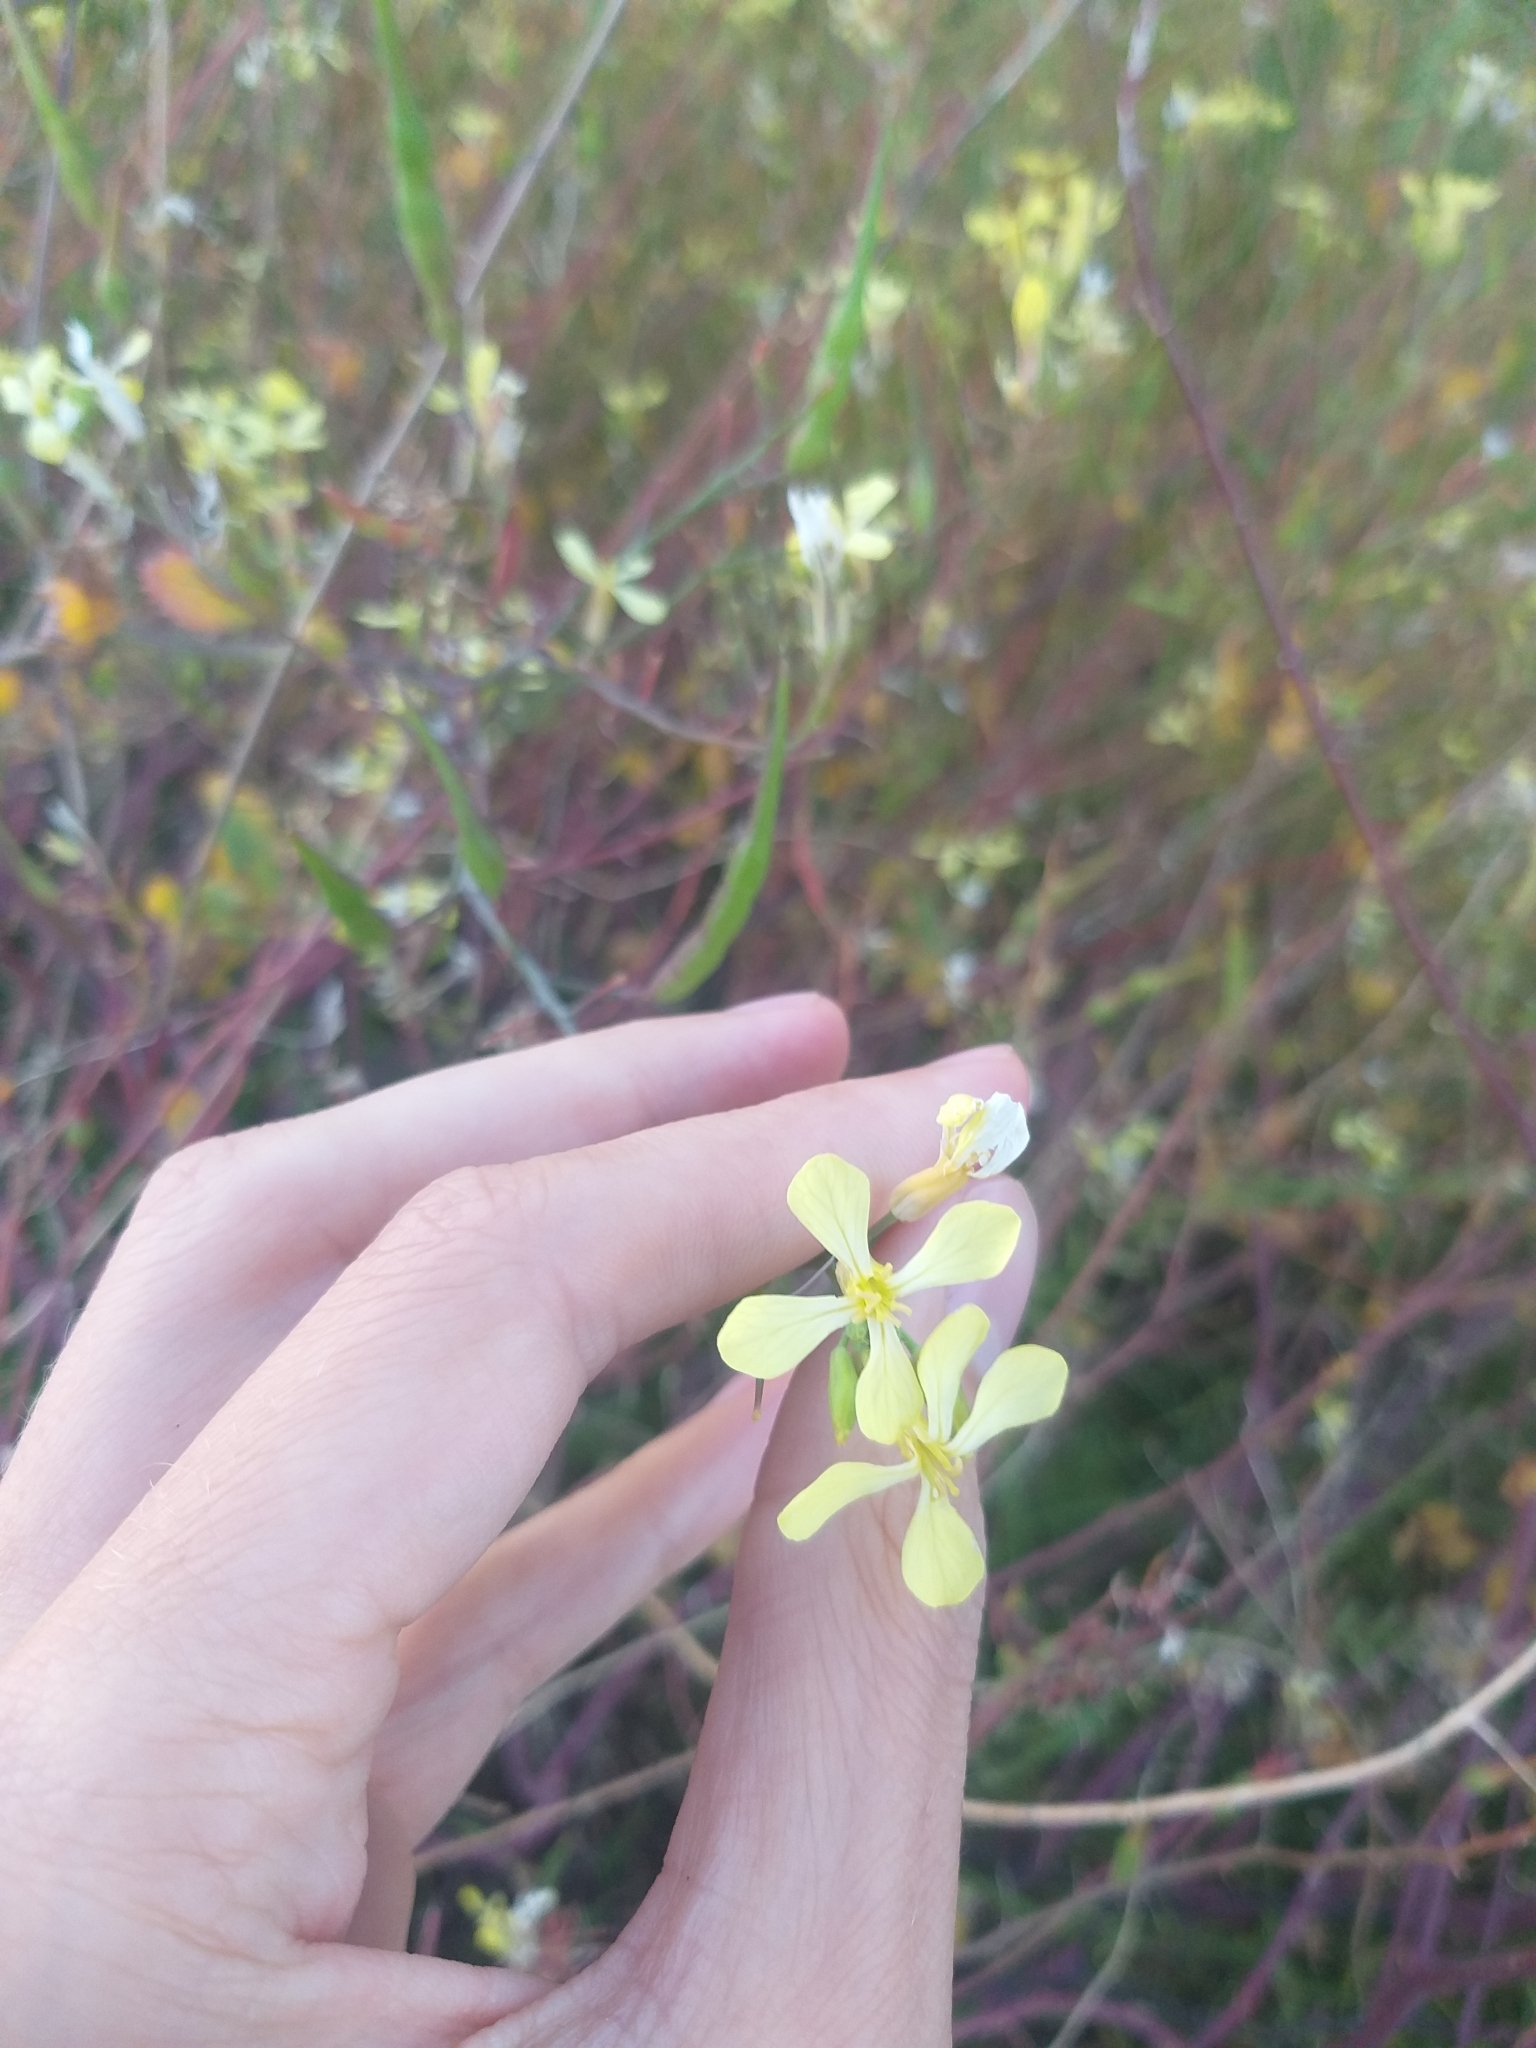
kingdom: Plantae
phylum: Tracheophyta
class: Magnoliopsida
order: Brassicales
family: Brassicaceae
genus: Raphanus
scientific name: Raphanus raphanistrum
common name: Wild radish
